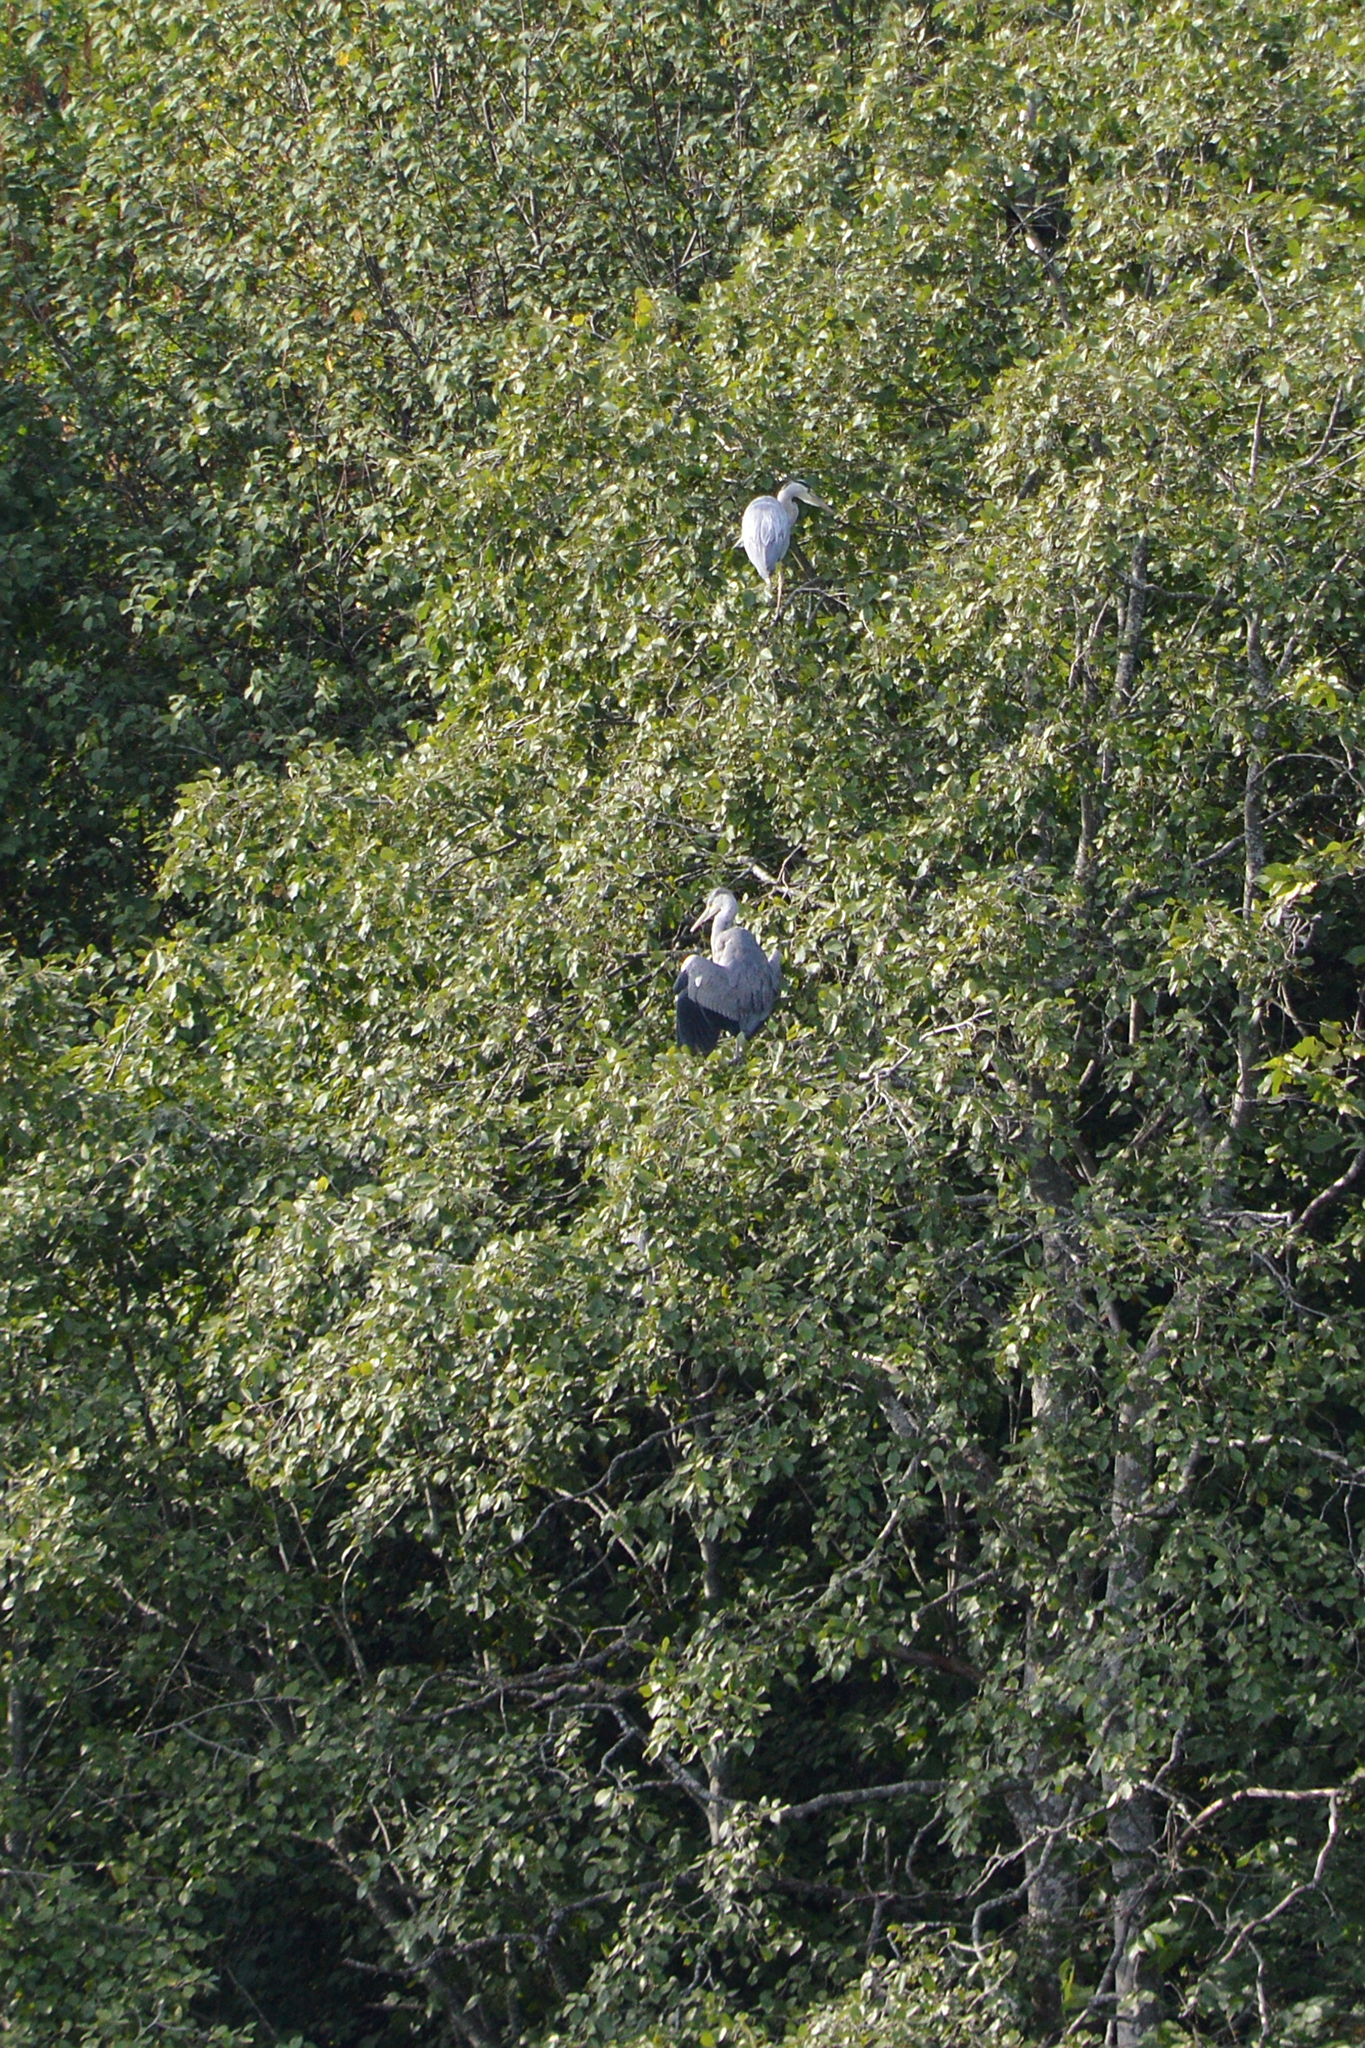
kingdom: Animalia
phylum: Chordata
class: Aves
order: Pelecaniformes
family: Ardeidae
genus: Ardea
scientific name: Ardea cinerea
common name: Grey heron
